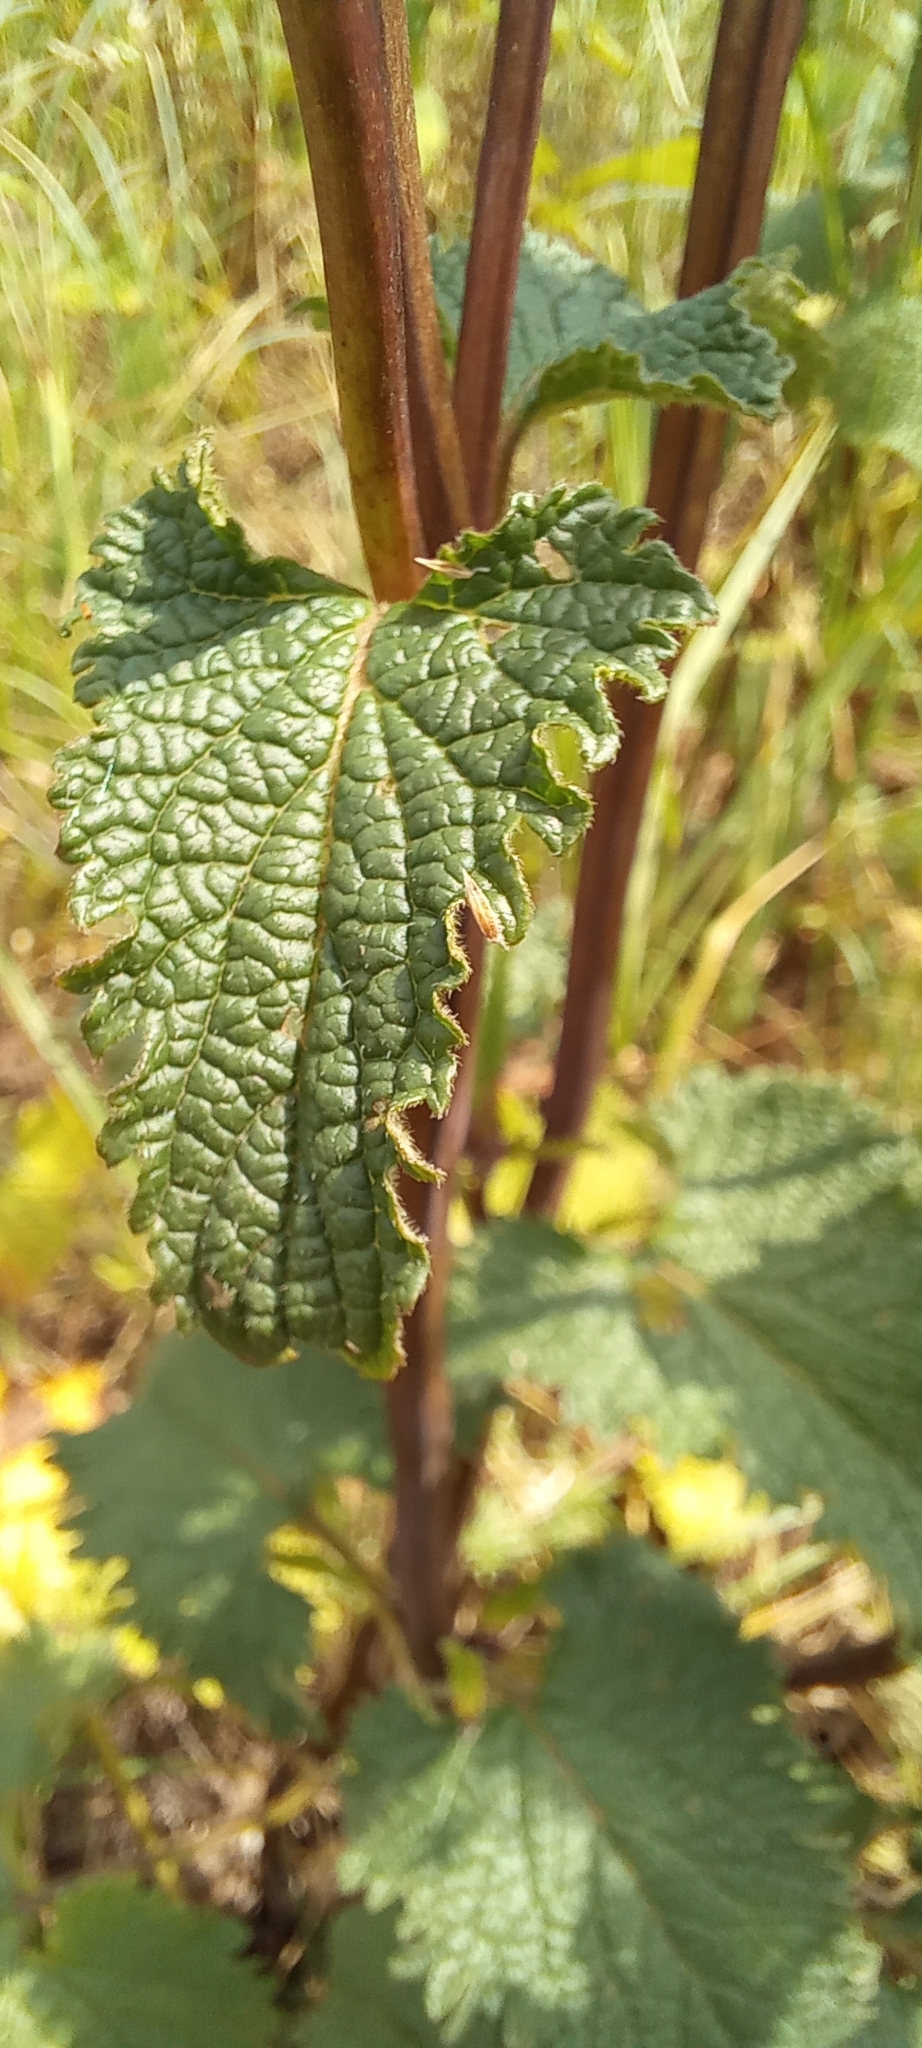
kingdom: Plantae
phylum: Tracheophyta
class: Magnoliopsida
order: Lamiales
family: Lamiaceae
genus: Phlomoides
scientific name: Phlomoides tuberosa
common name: Tuberous jerusalem sage
